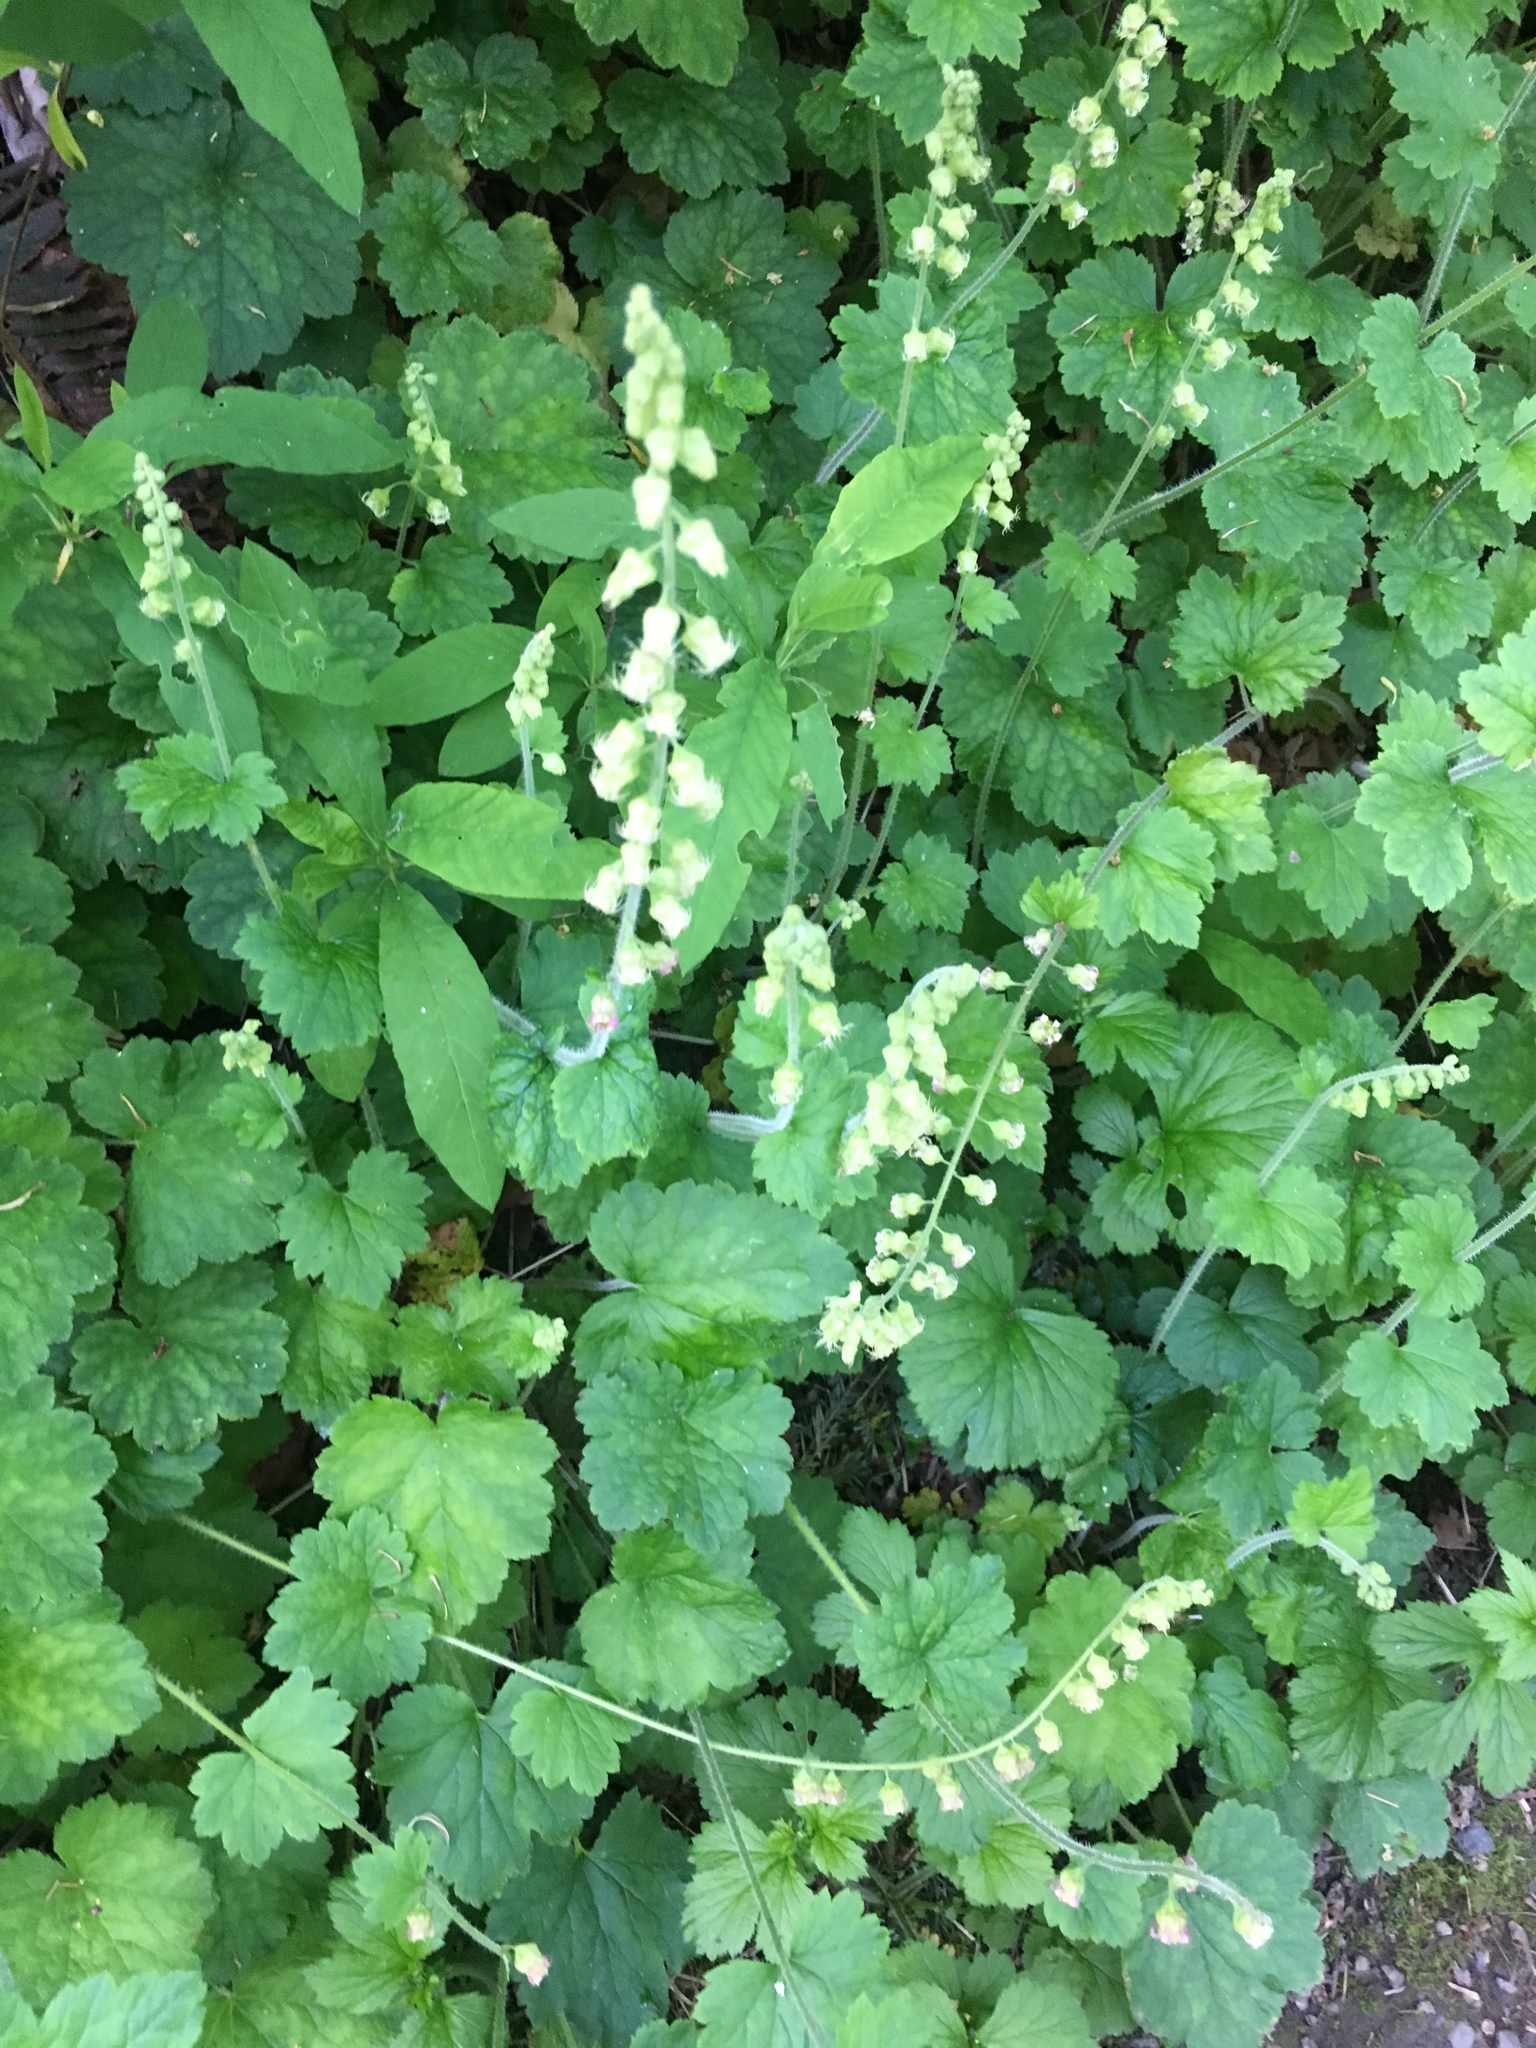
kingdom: Plantae
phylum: Tracheophyta
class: Magnoliopsida
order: Saxifragales
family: Saxifragaceae
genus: Tellima
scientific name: Tellima grandiflora
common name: Fringecups
